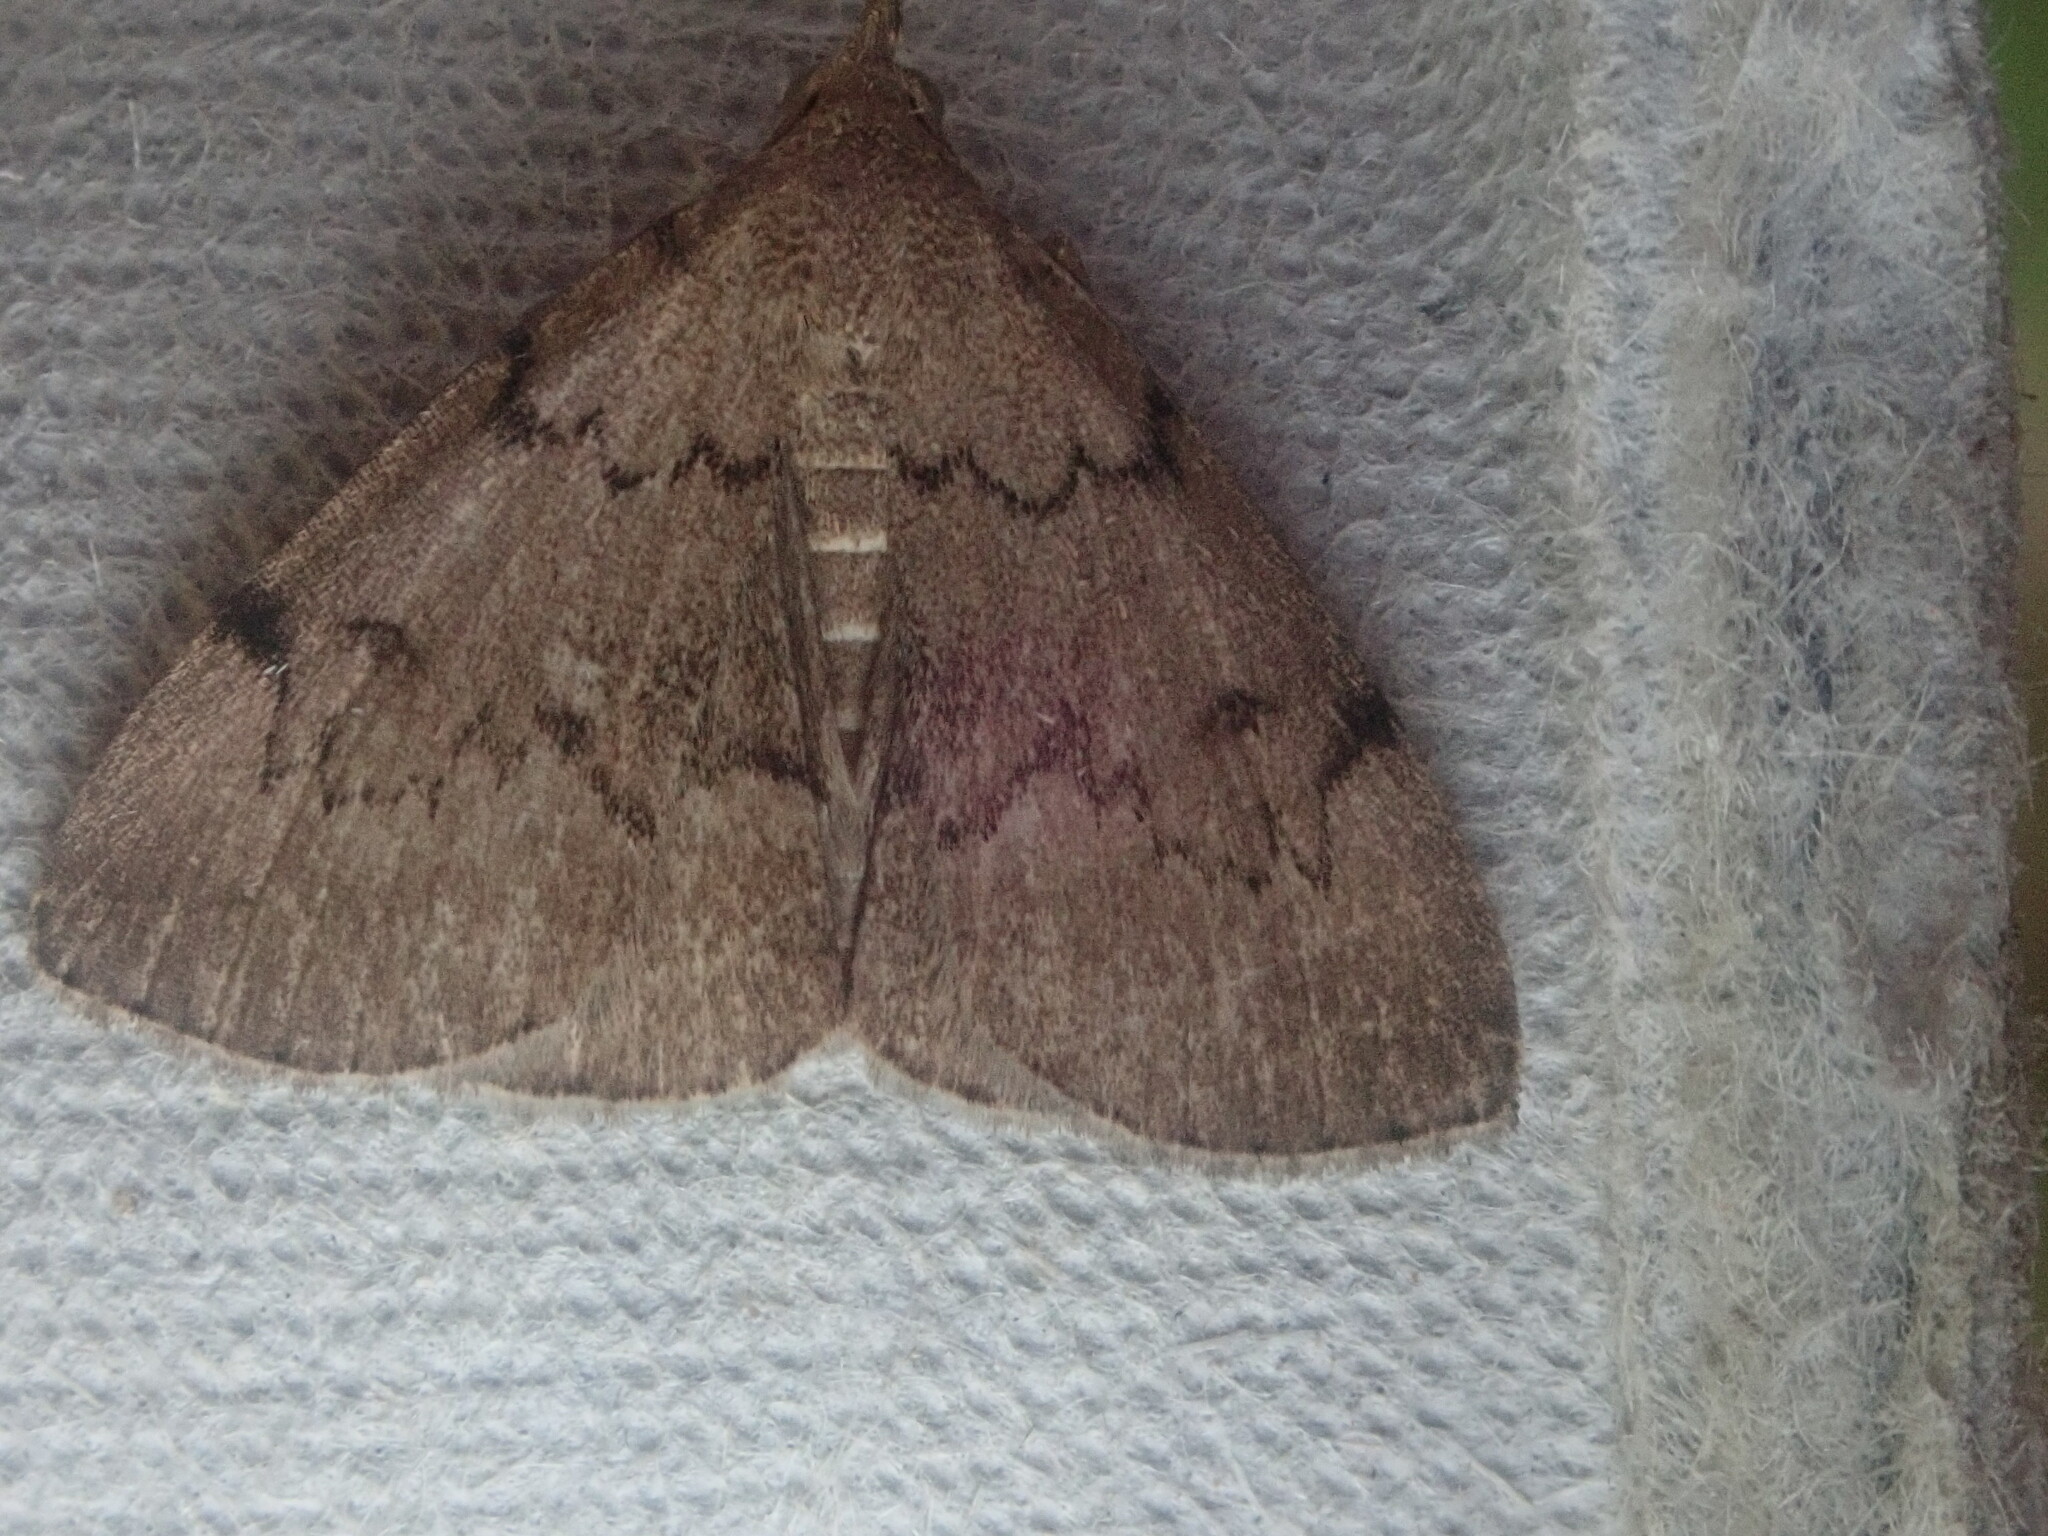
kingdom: Animalia
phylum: Arthropoda
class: Insecta
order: Lepidoptera
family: Erebidae
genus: Zanclognatha
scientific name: Zanclognatha dentata
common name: Toothed fan-foot
